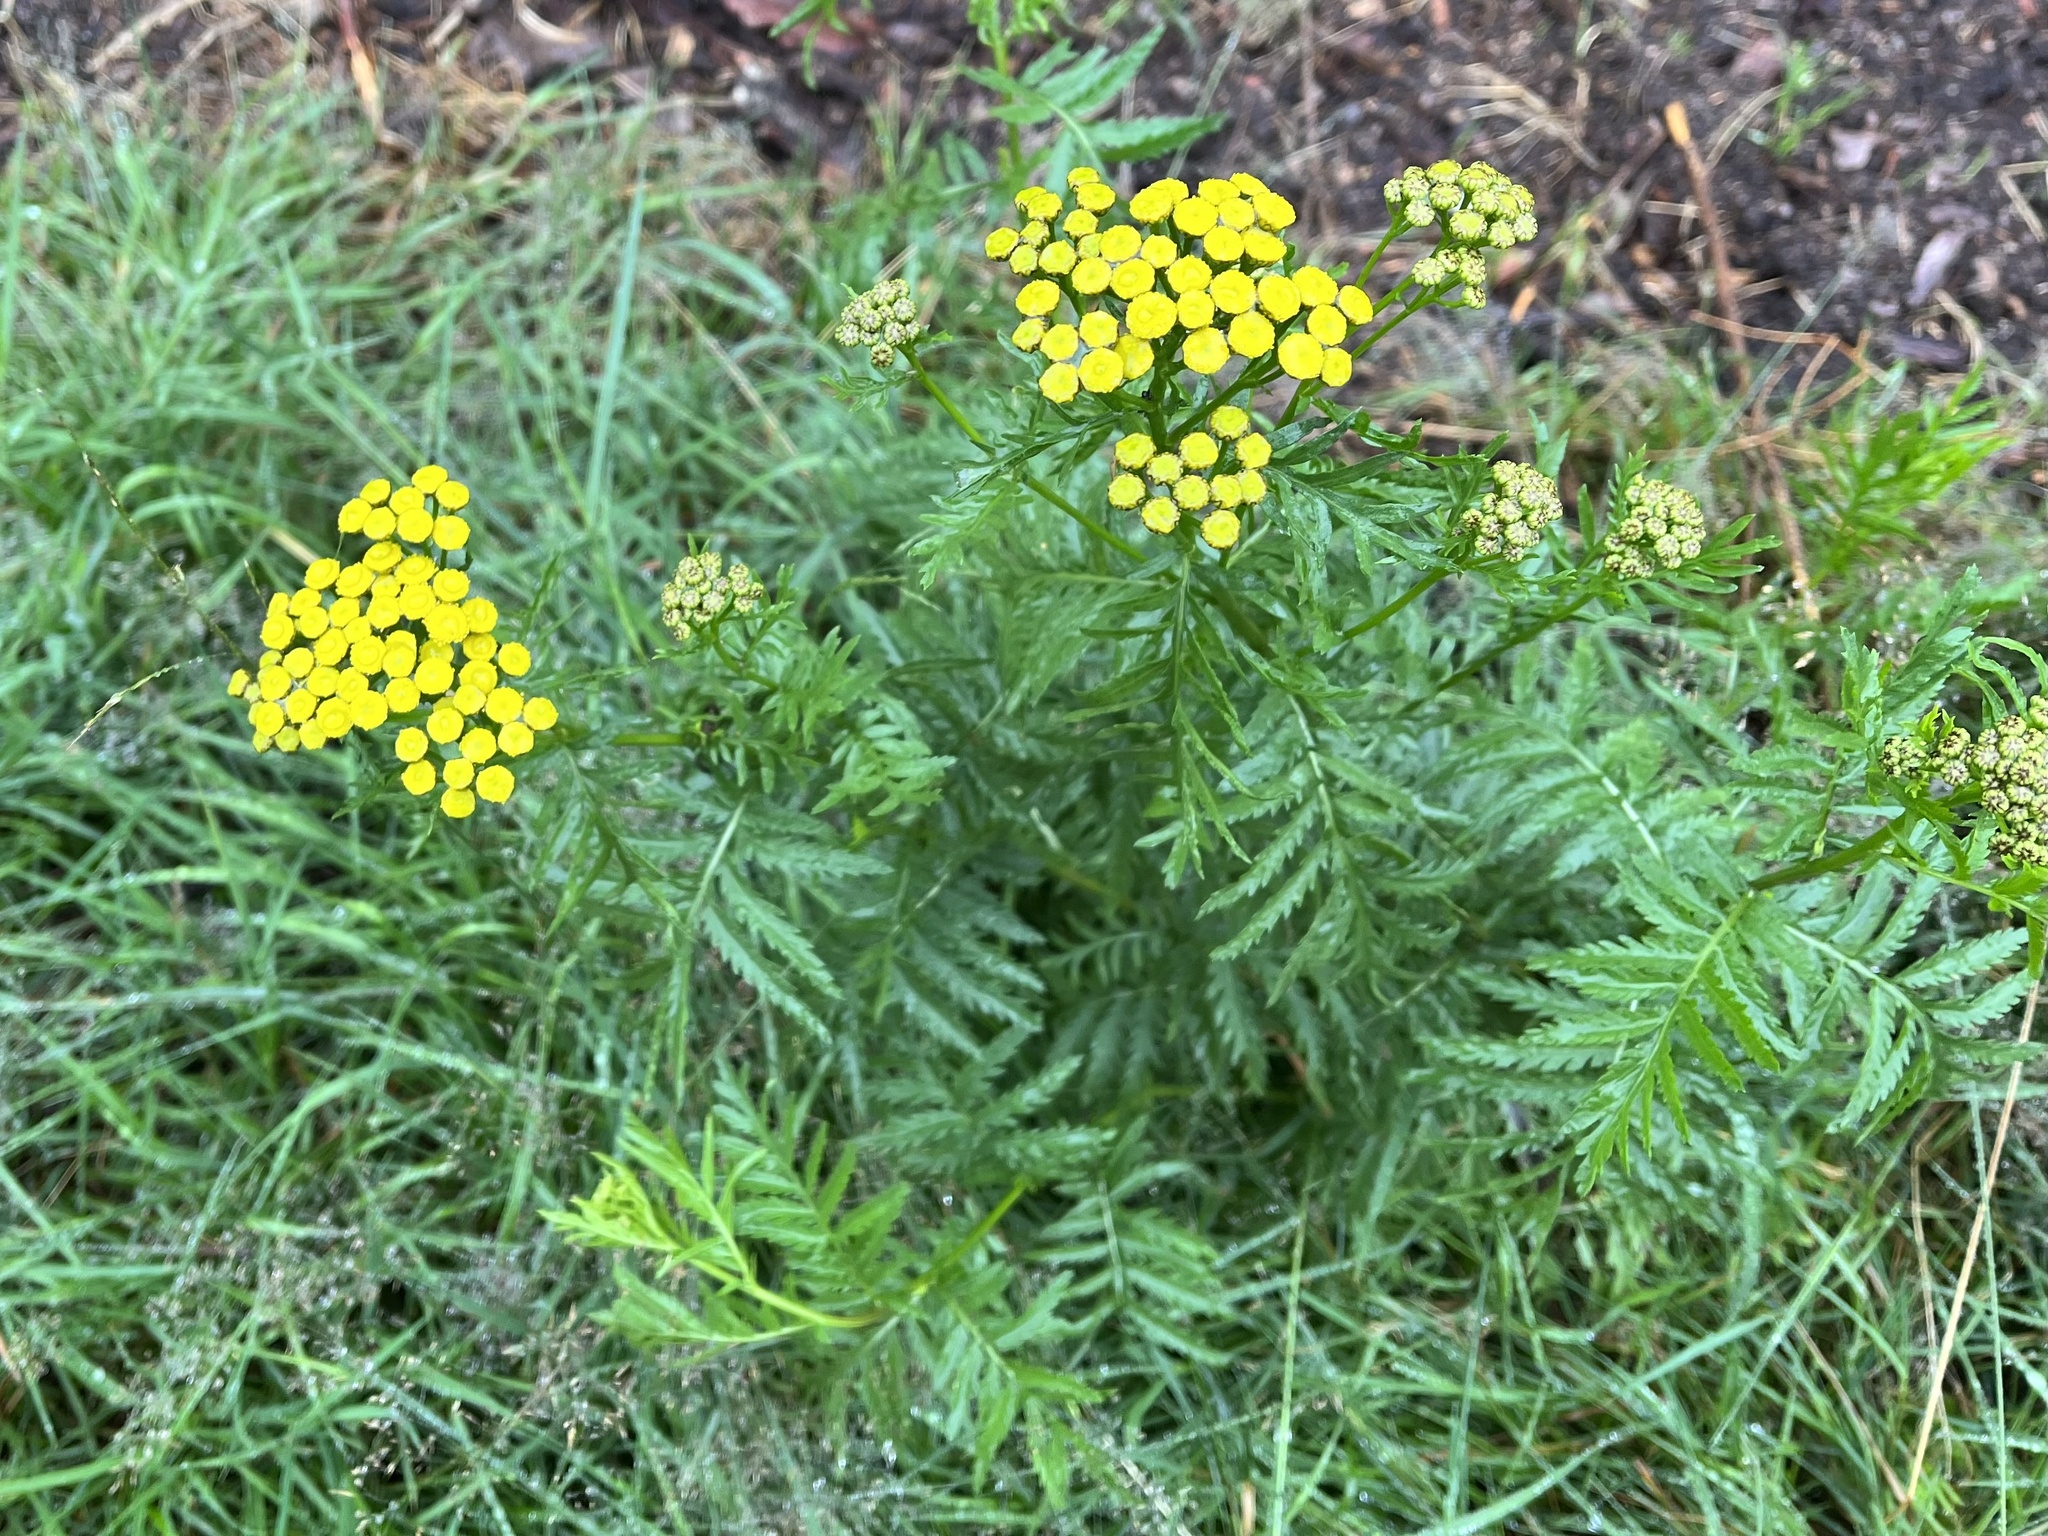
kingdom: Plantae
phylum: Tracheophyta
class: Magnoliopsida
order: Asterales
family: Asteraceae
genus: Tanacetum
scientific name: Tanacetum vulgare
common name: Common tansy
